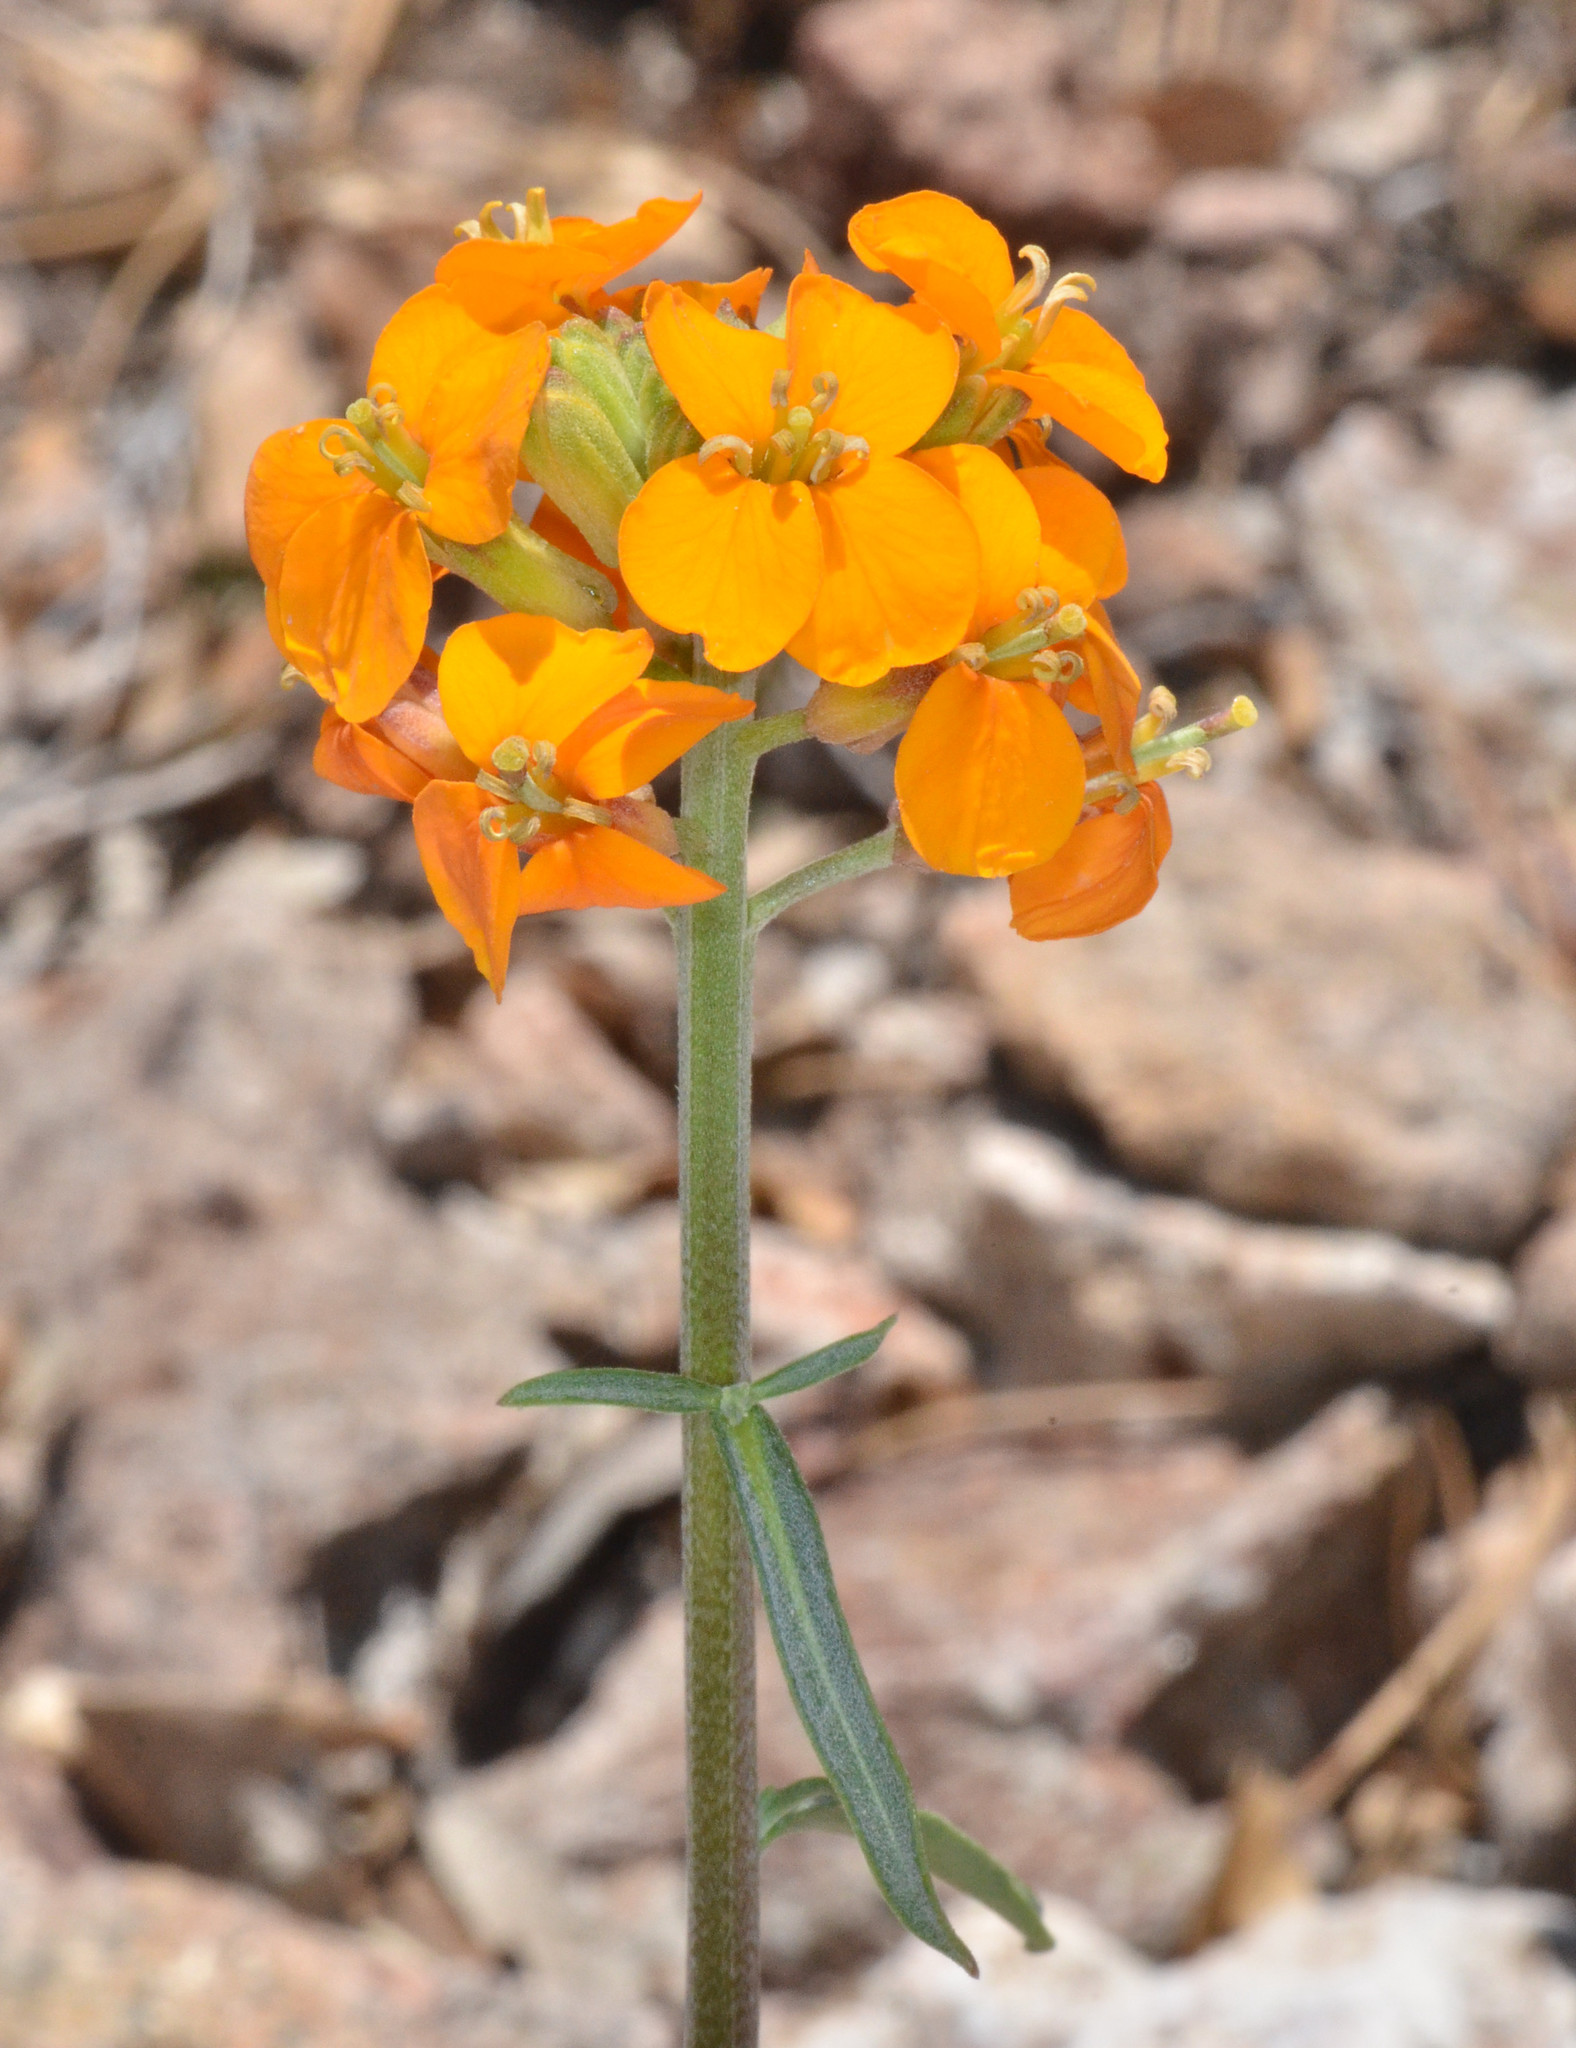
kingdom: Plantae
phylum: Tracheophyta
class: Magnoliopsida
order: Brassicales
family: Brassicaceae
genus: Erysimum
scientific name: Erysimum capitatum
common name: Western wallflower
